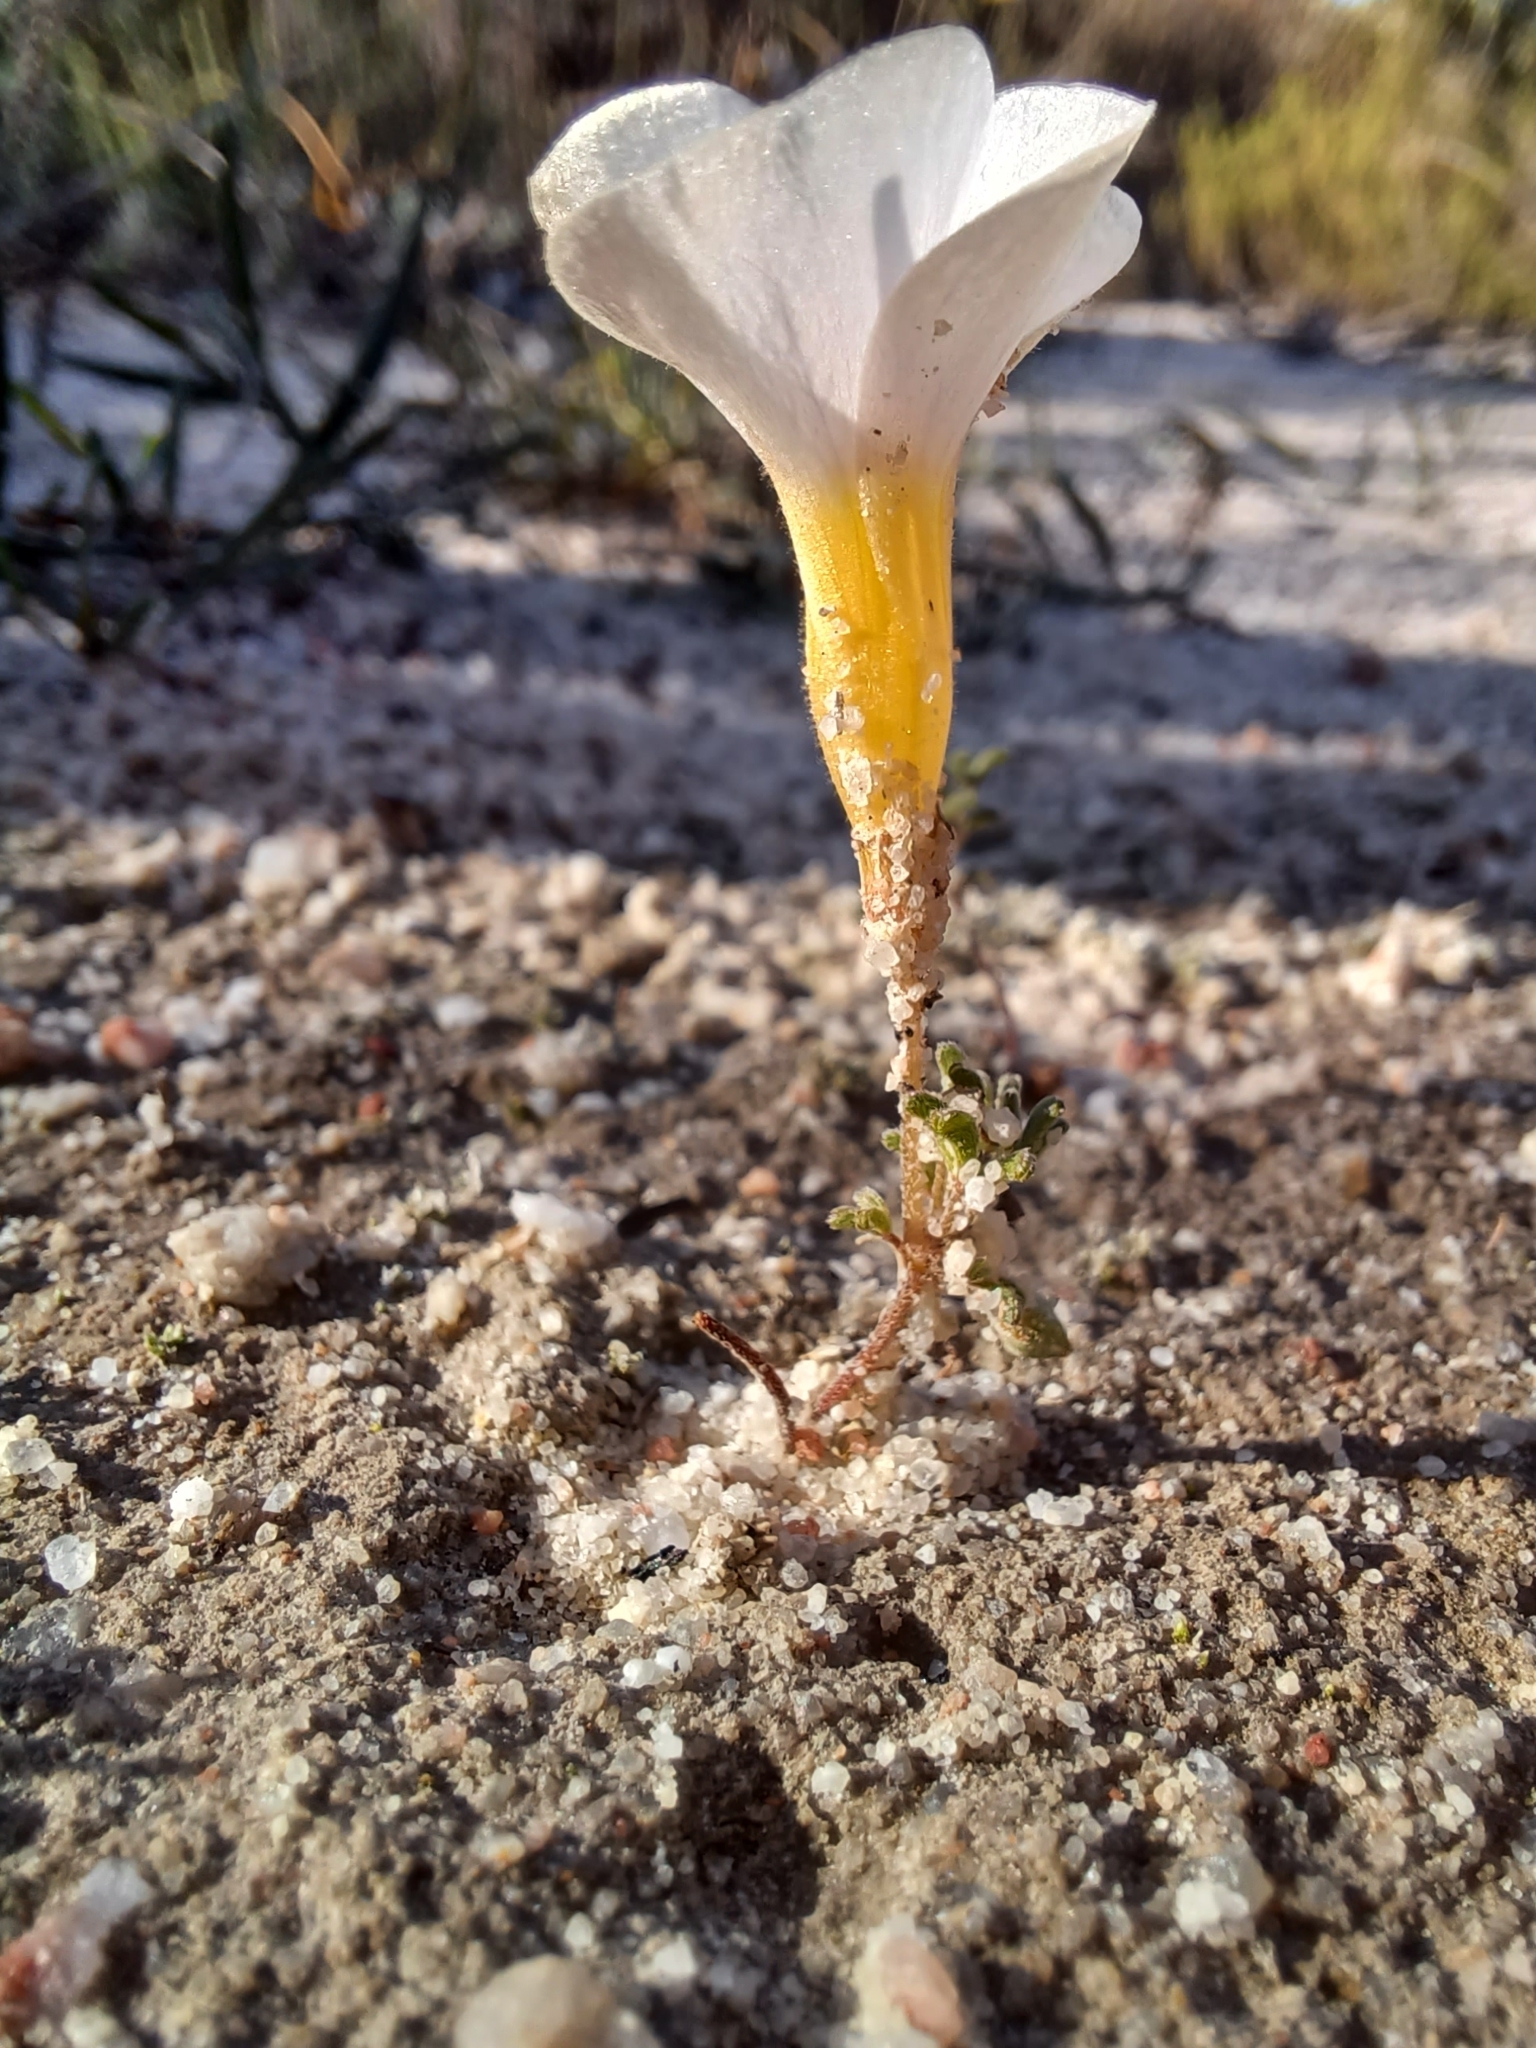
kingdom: Plantae
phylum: Tracheophyta
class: Magnoliopsida
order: Oxalidales
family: Oxalidaceae
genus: Oxalis
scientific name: Oxalis ciliaris
